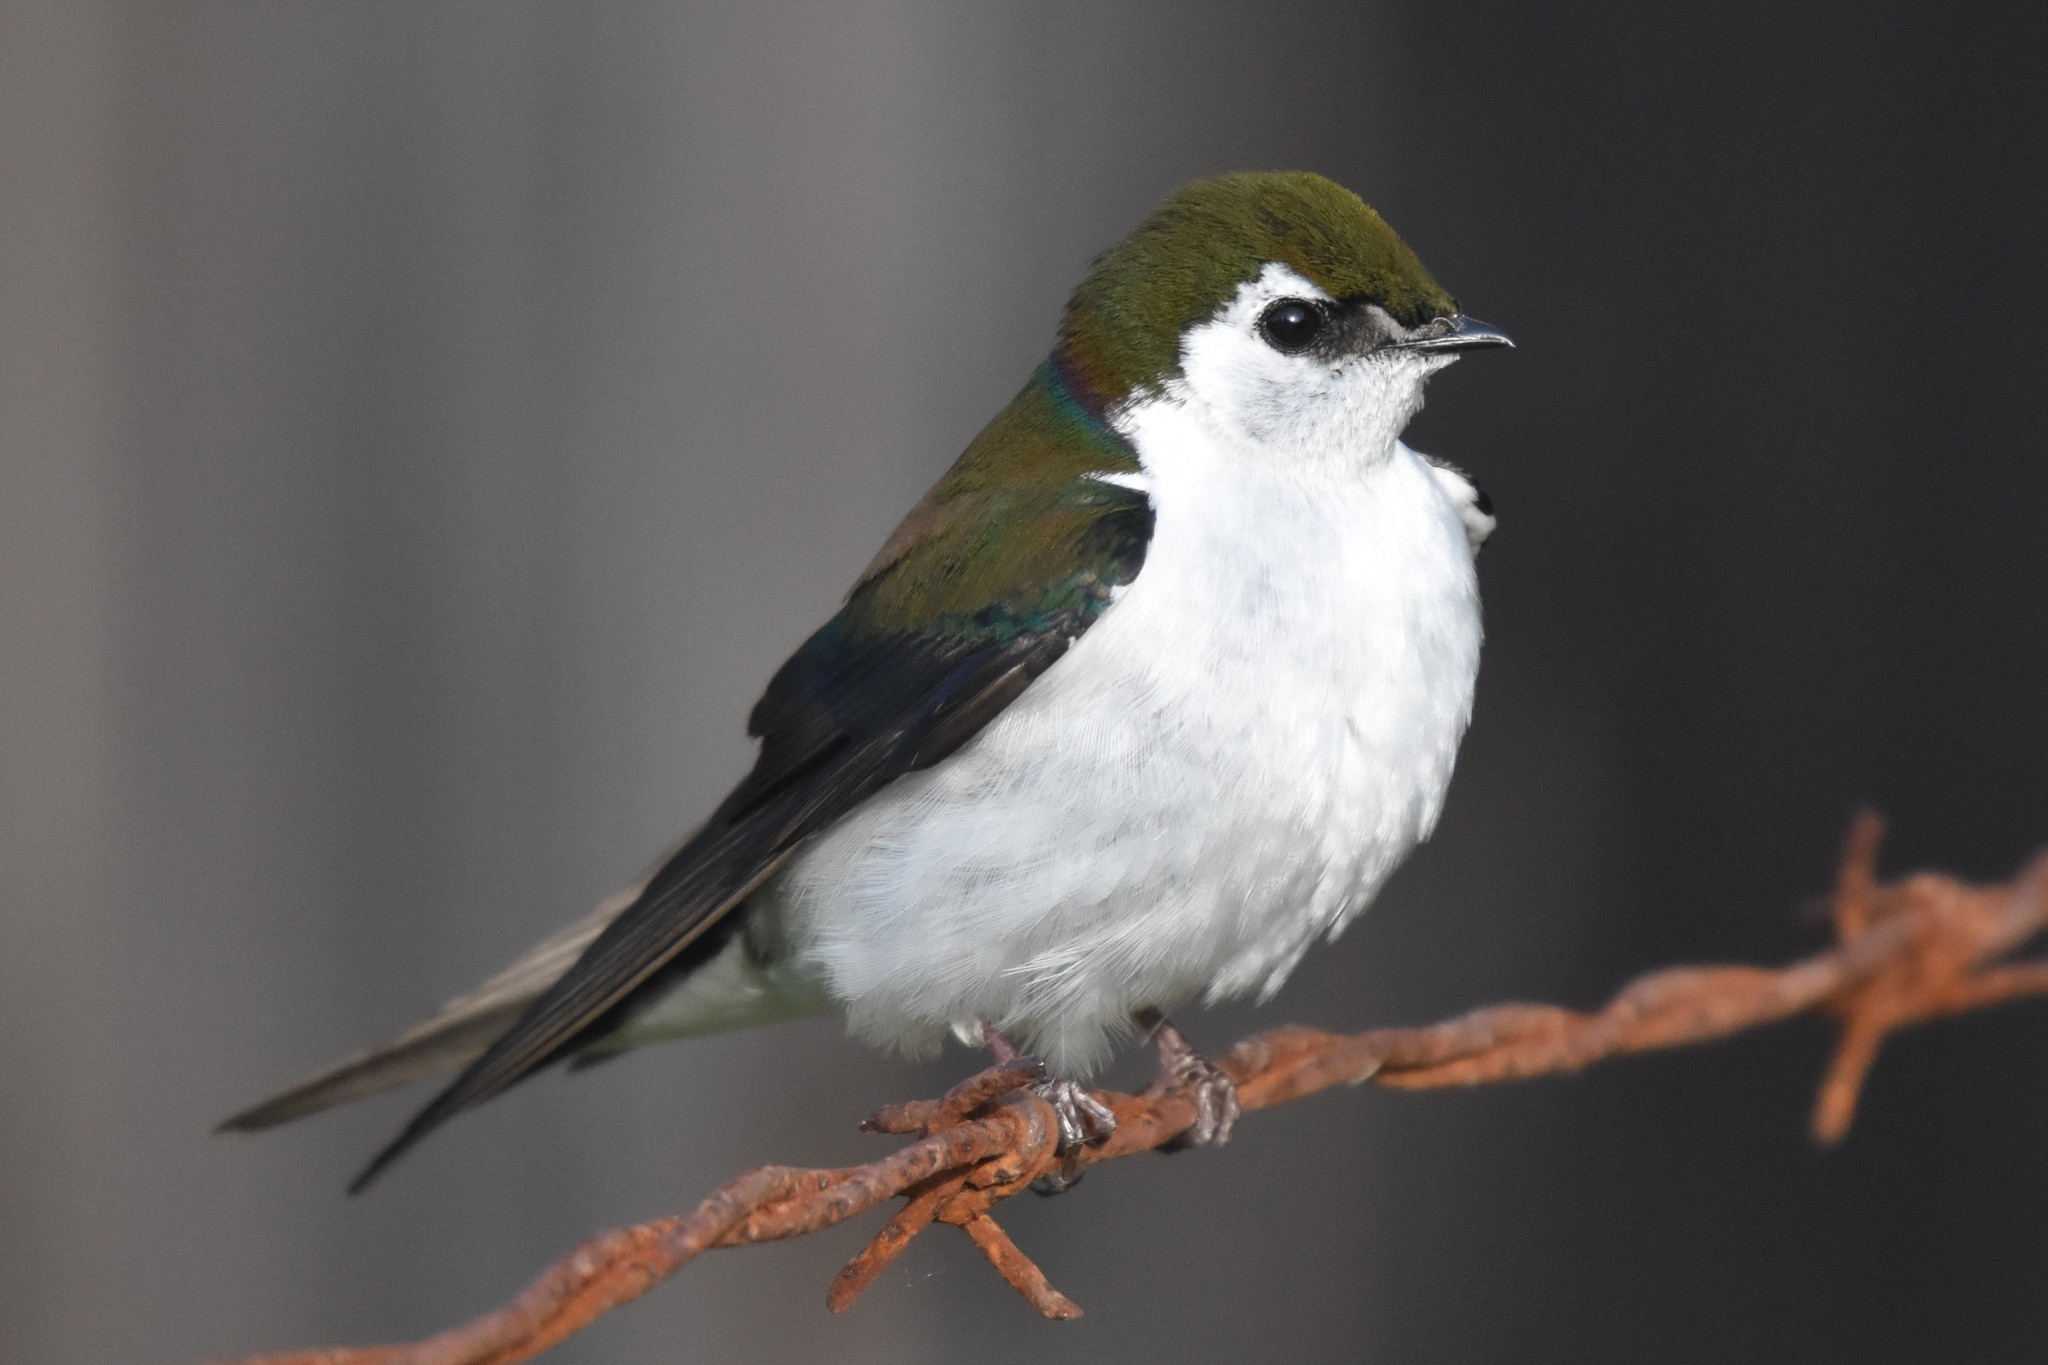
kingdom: Animalia
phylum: Chordata
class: Aves
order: Passeriformes
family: Hirundinidae
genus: Tachycineta
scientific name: Tachycineta thalassina
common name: Violet-green swallow
